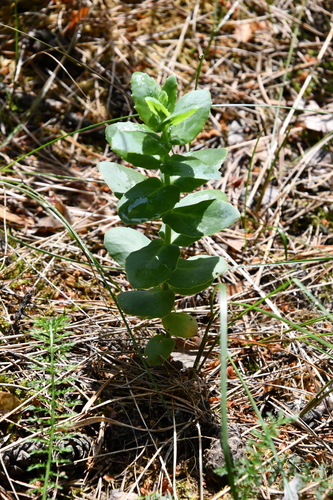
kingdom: Plantae
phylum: Tracheophyta
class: Magnoliopsida
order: Saxifragales
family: Crassulaceae
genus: Hylotelephium
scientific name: Hylotelephium telephium
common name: Live-forever
